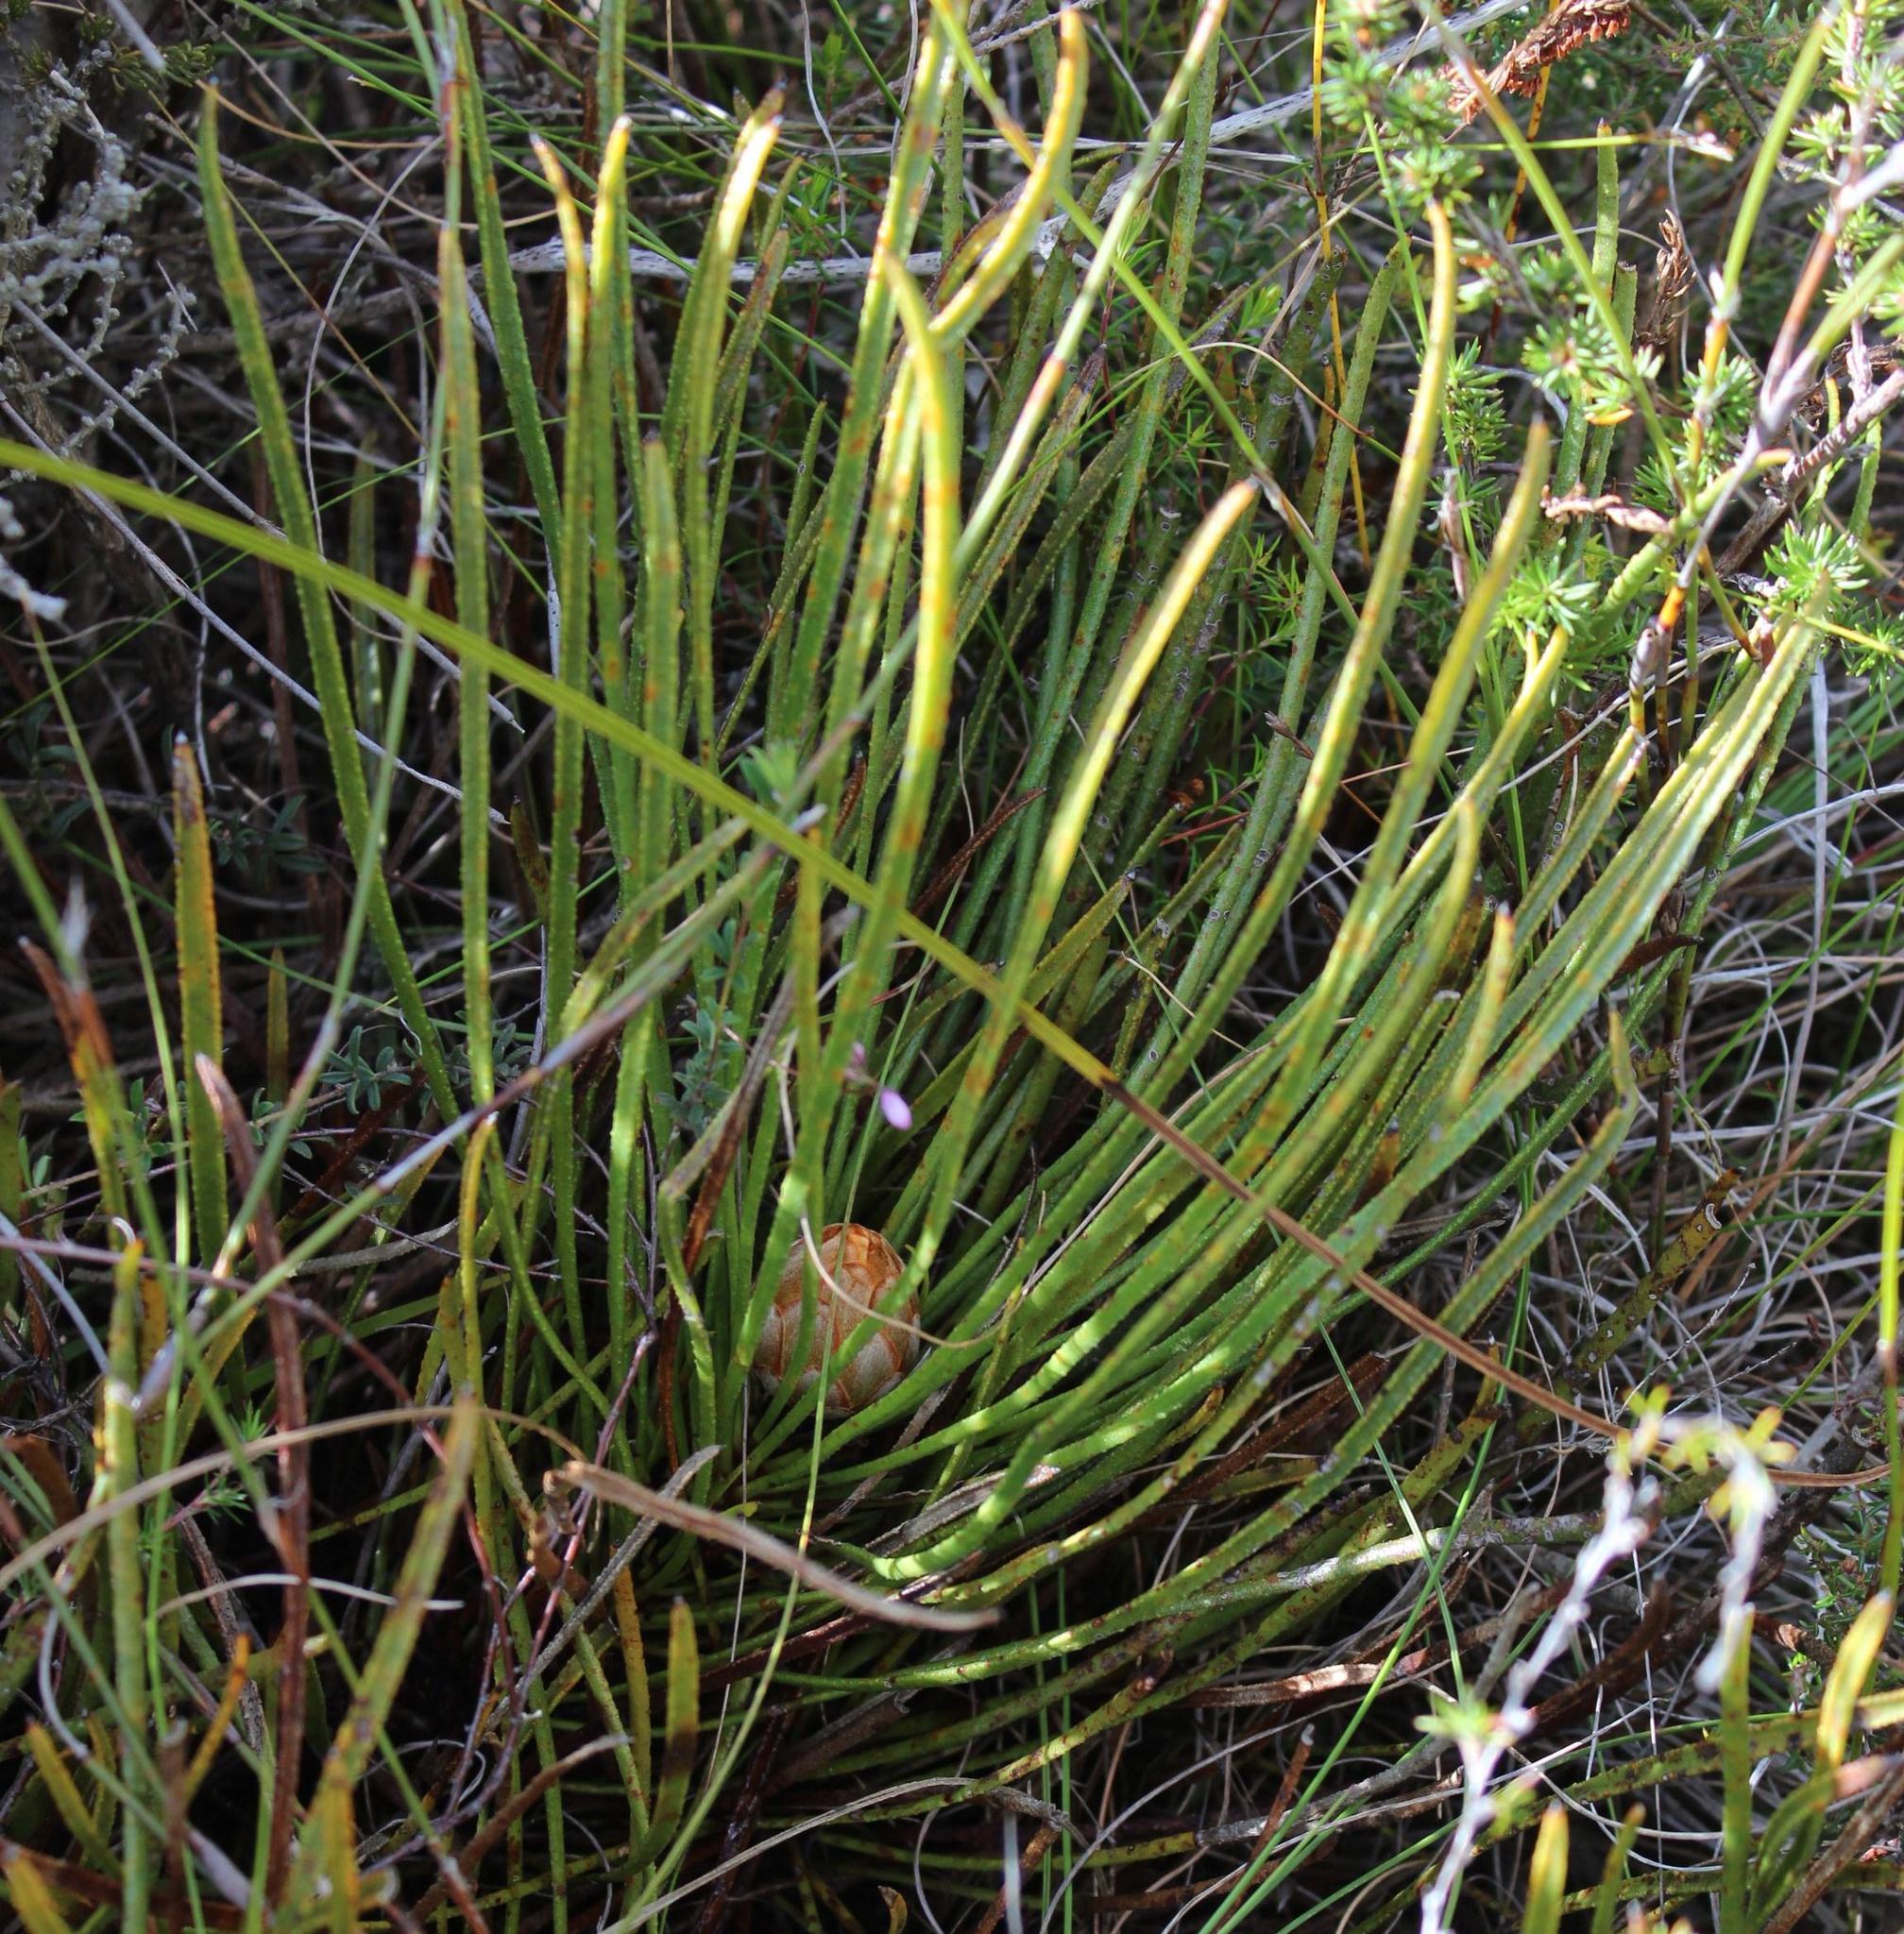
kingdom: Plantae
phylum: Tracheophyta
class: Magnoliopsida
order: Proteales
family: Proteaceae
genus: Protea
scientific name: Protea aspera
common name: Rough-leaf sugarbush
